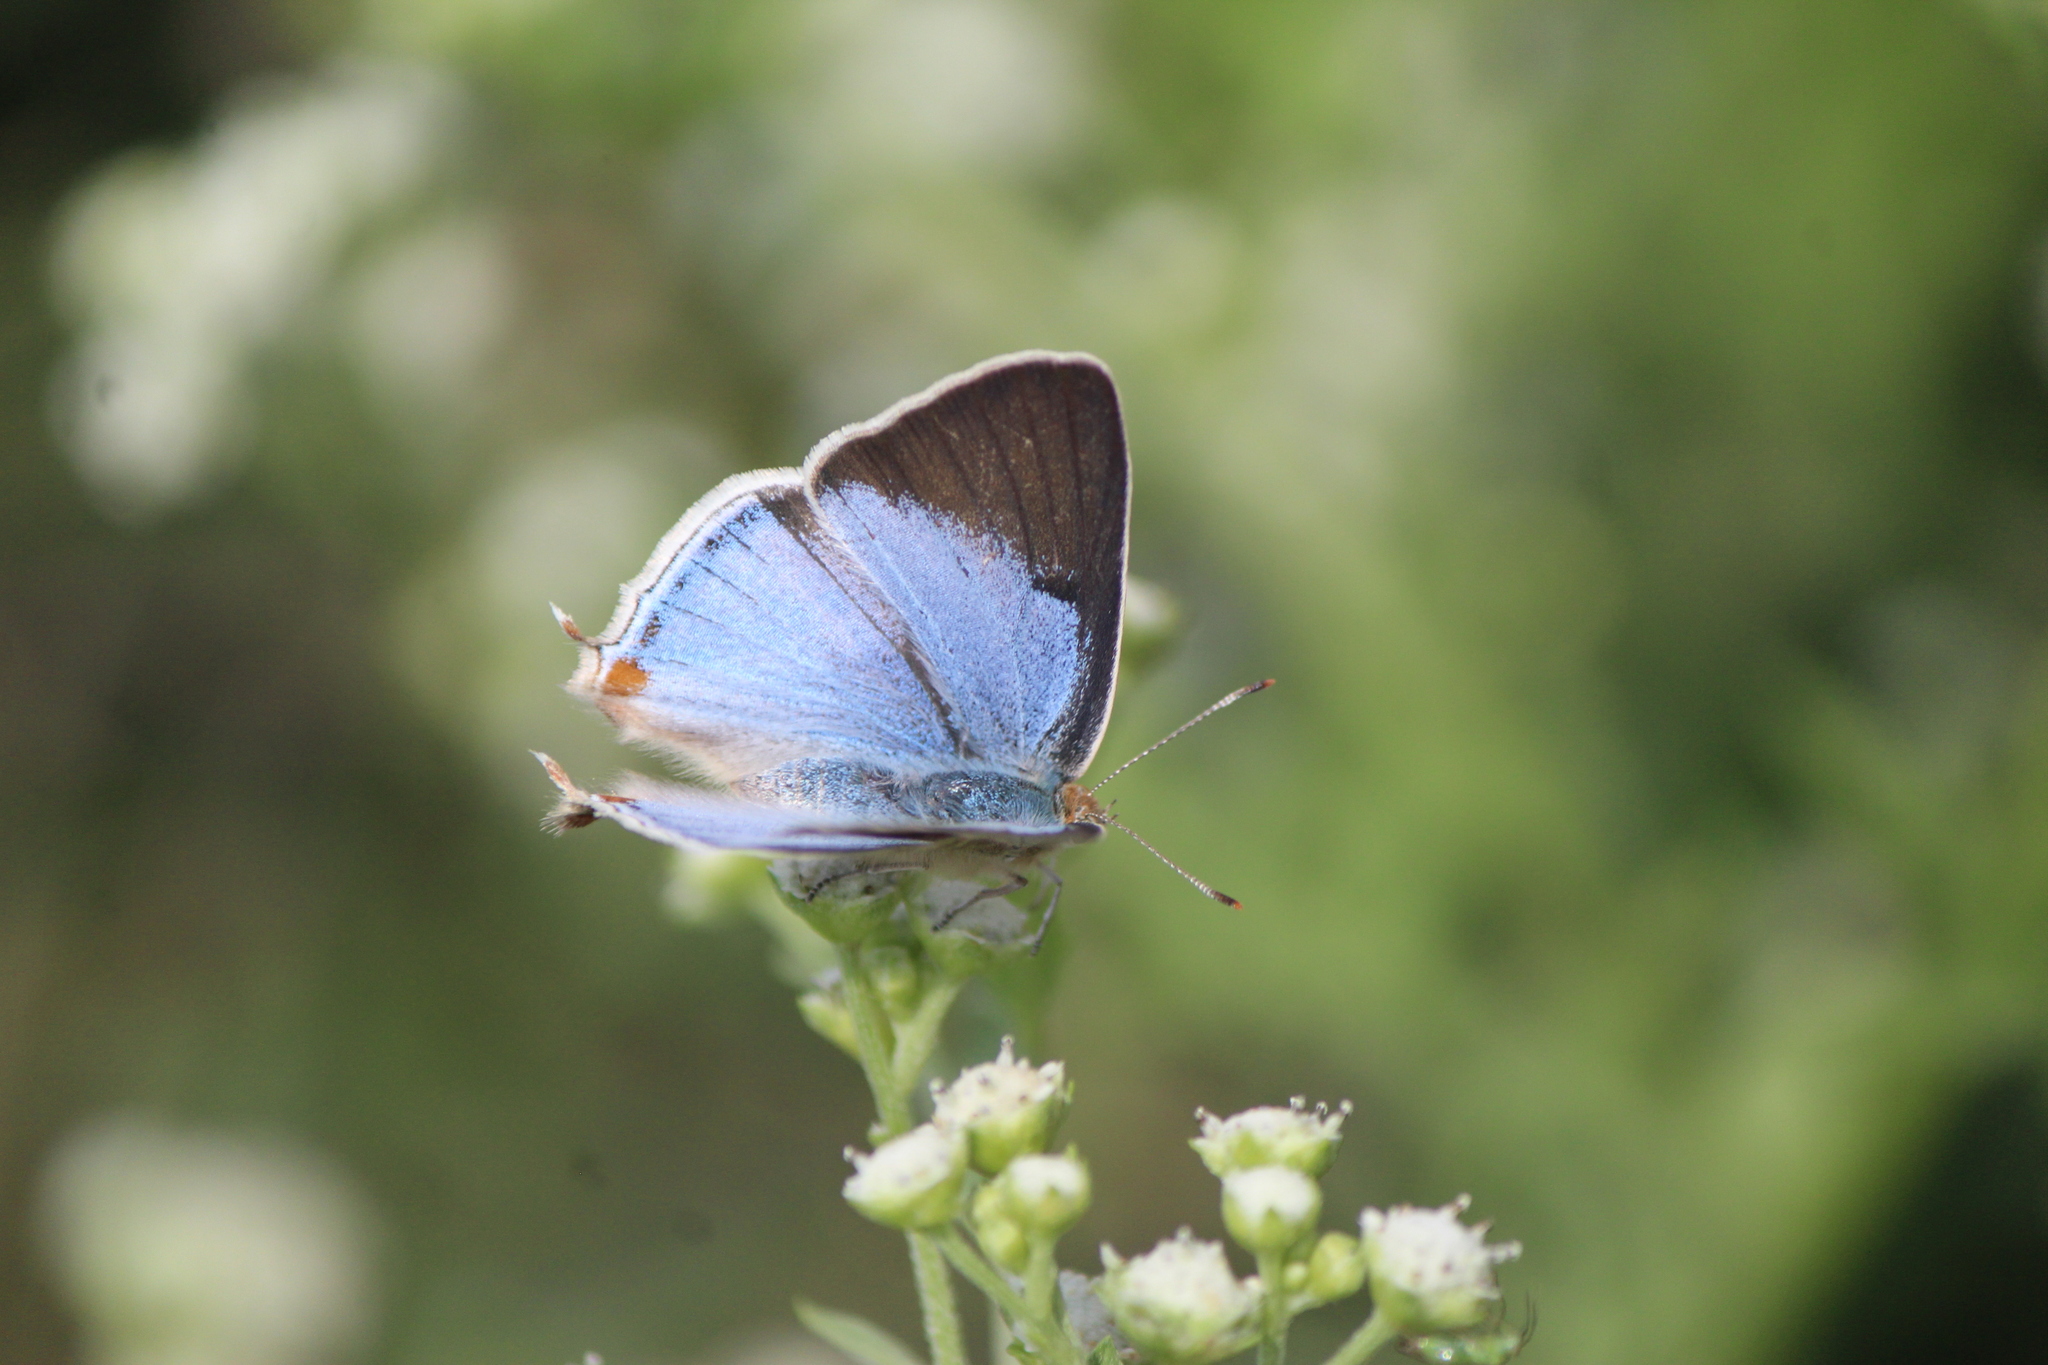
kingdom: Animalia
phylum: Arthropoda
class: Insecta
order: Lepidoptera
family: Lycaenidae
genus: Dolymorpha
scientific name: Dolymorpha jada
